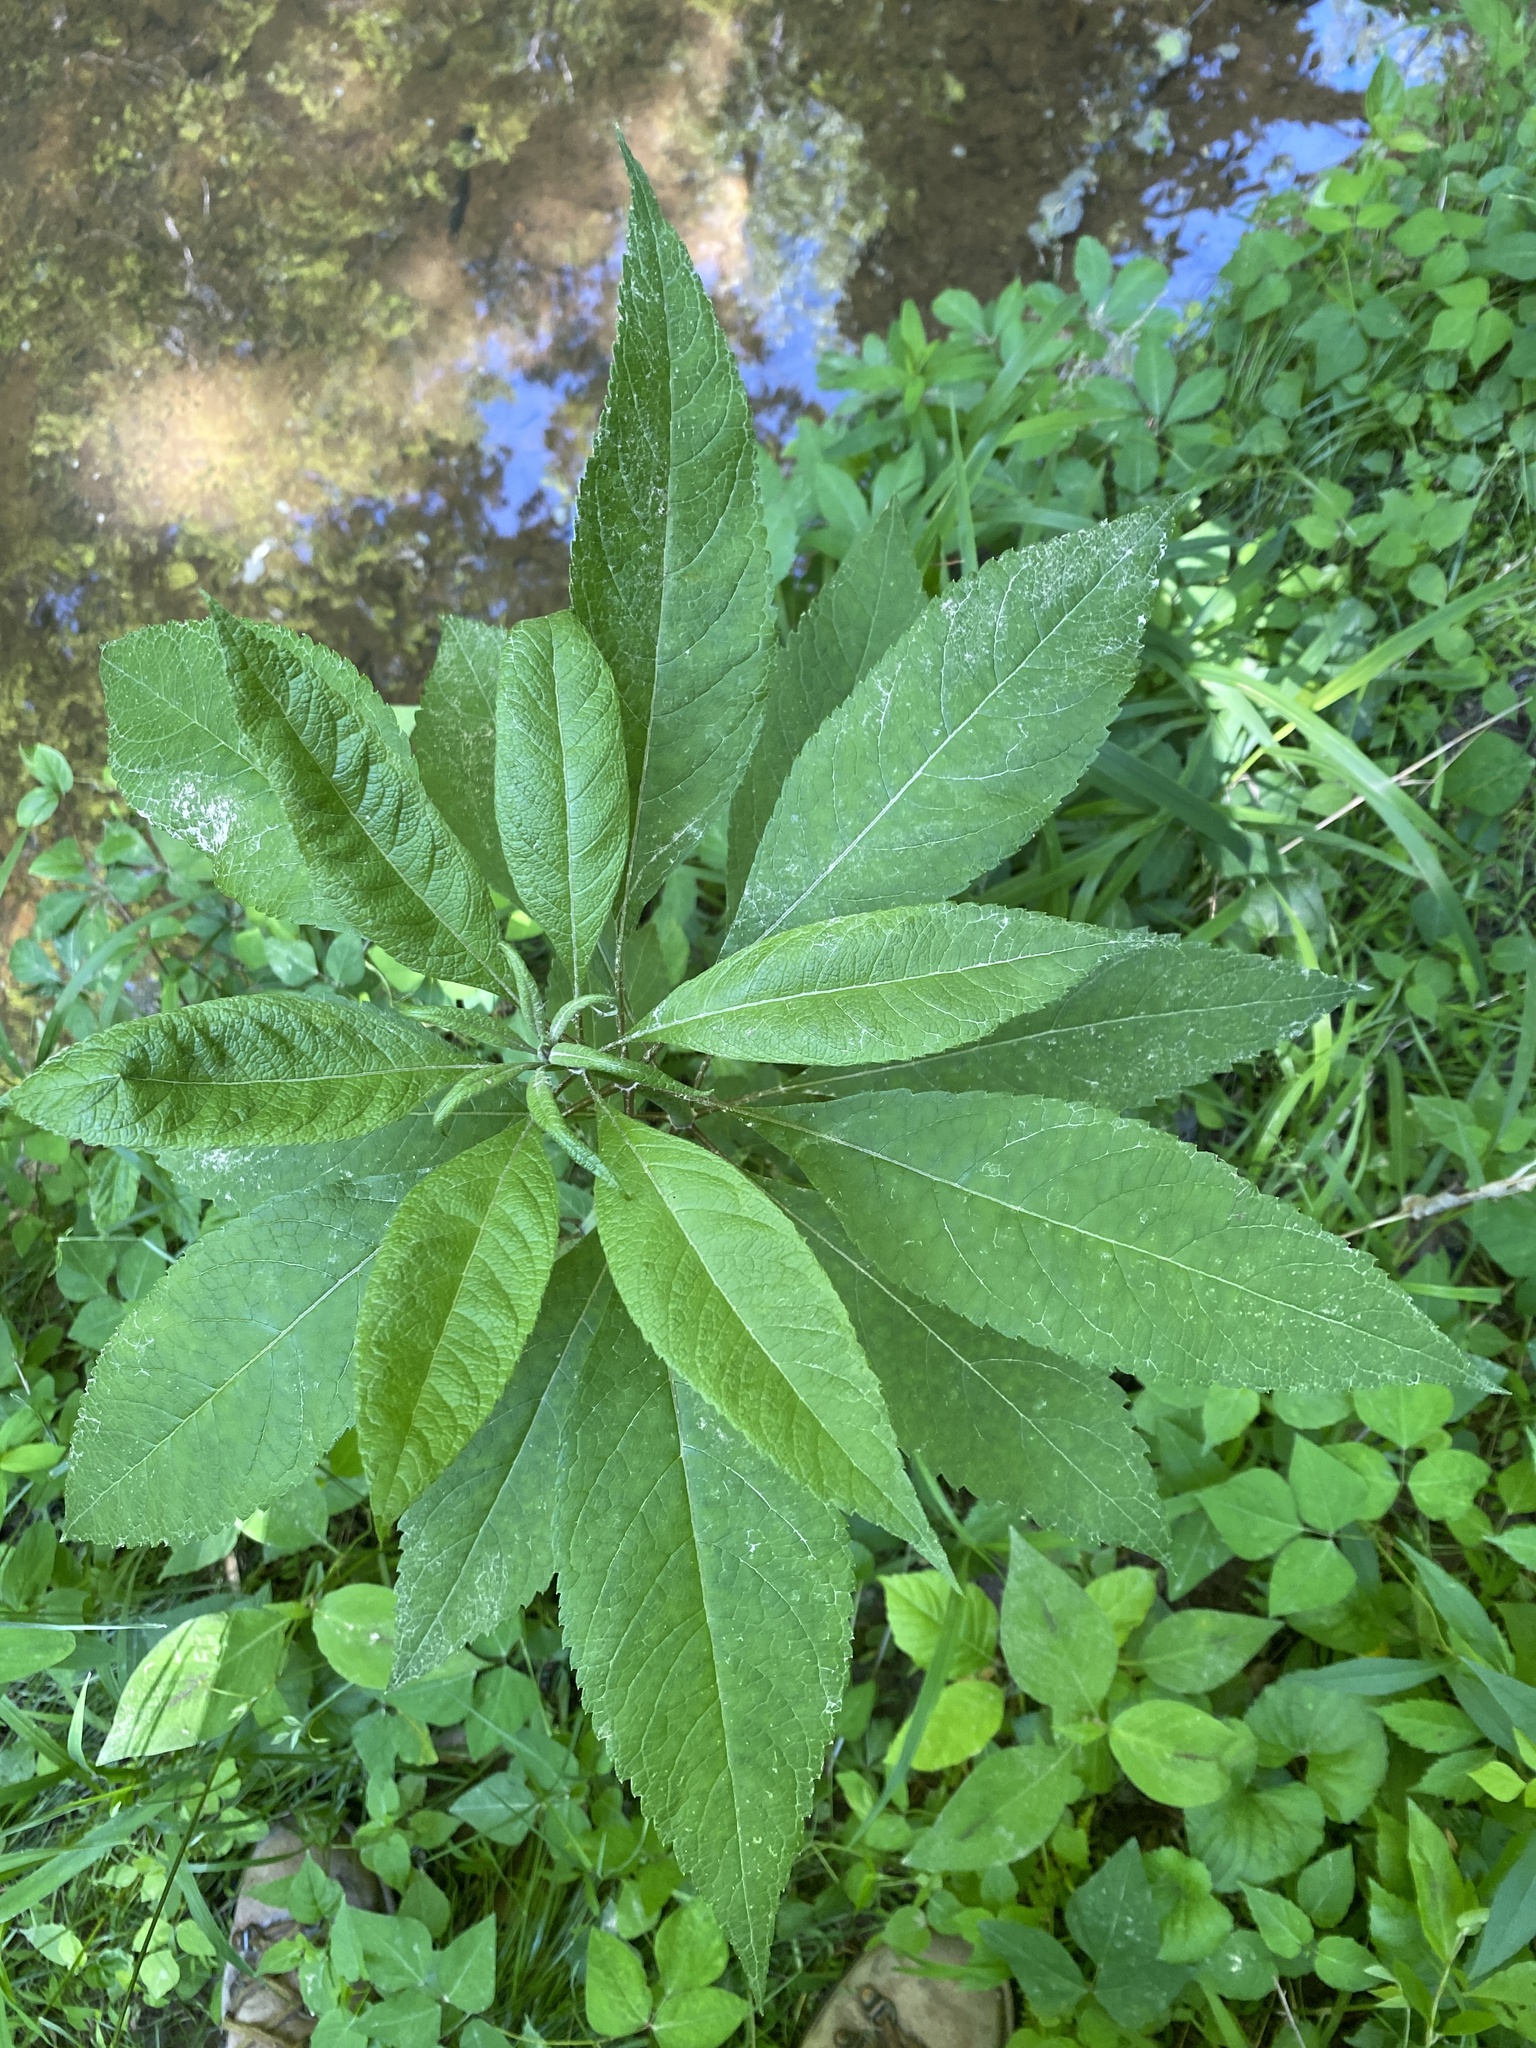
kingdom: Plantae
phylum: Tracheophyta
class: Magnoliopsida
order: Asterales
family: Asteraceae
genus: Eutrochium
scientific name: Eutrochium fistulosum
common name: Trumpetweed
